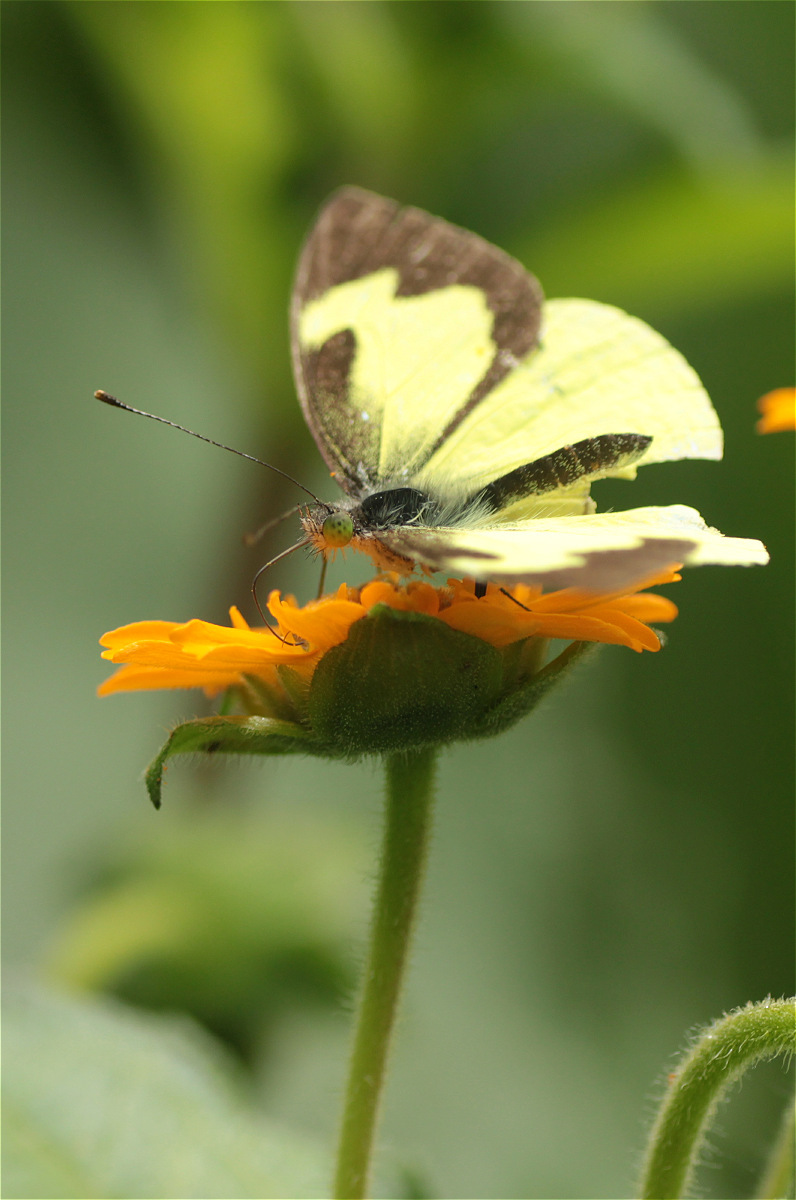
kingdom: Animalia
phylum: Arthropoda
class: Insecta
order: Lepidoptera
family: Pieridae
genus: Leptophobia
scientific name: Leptophobia eleone
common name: Silky wanderer
